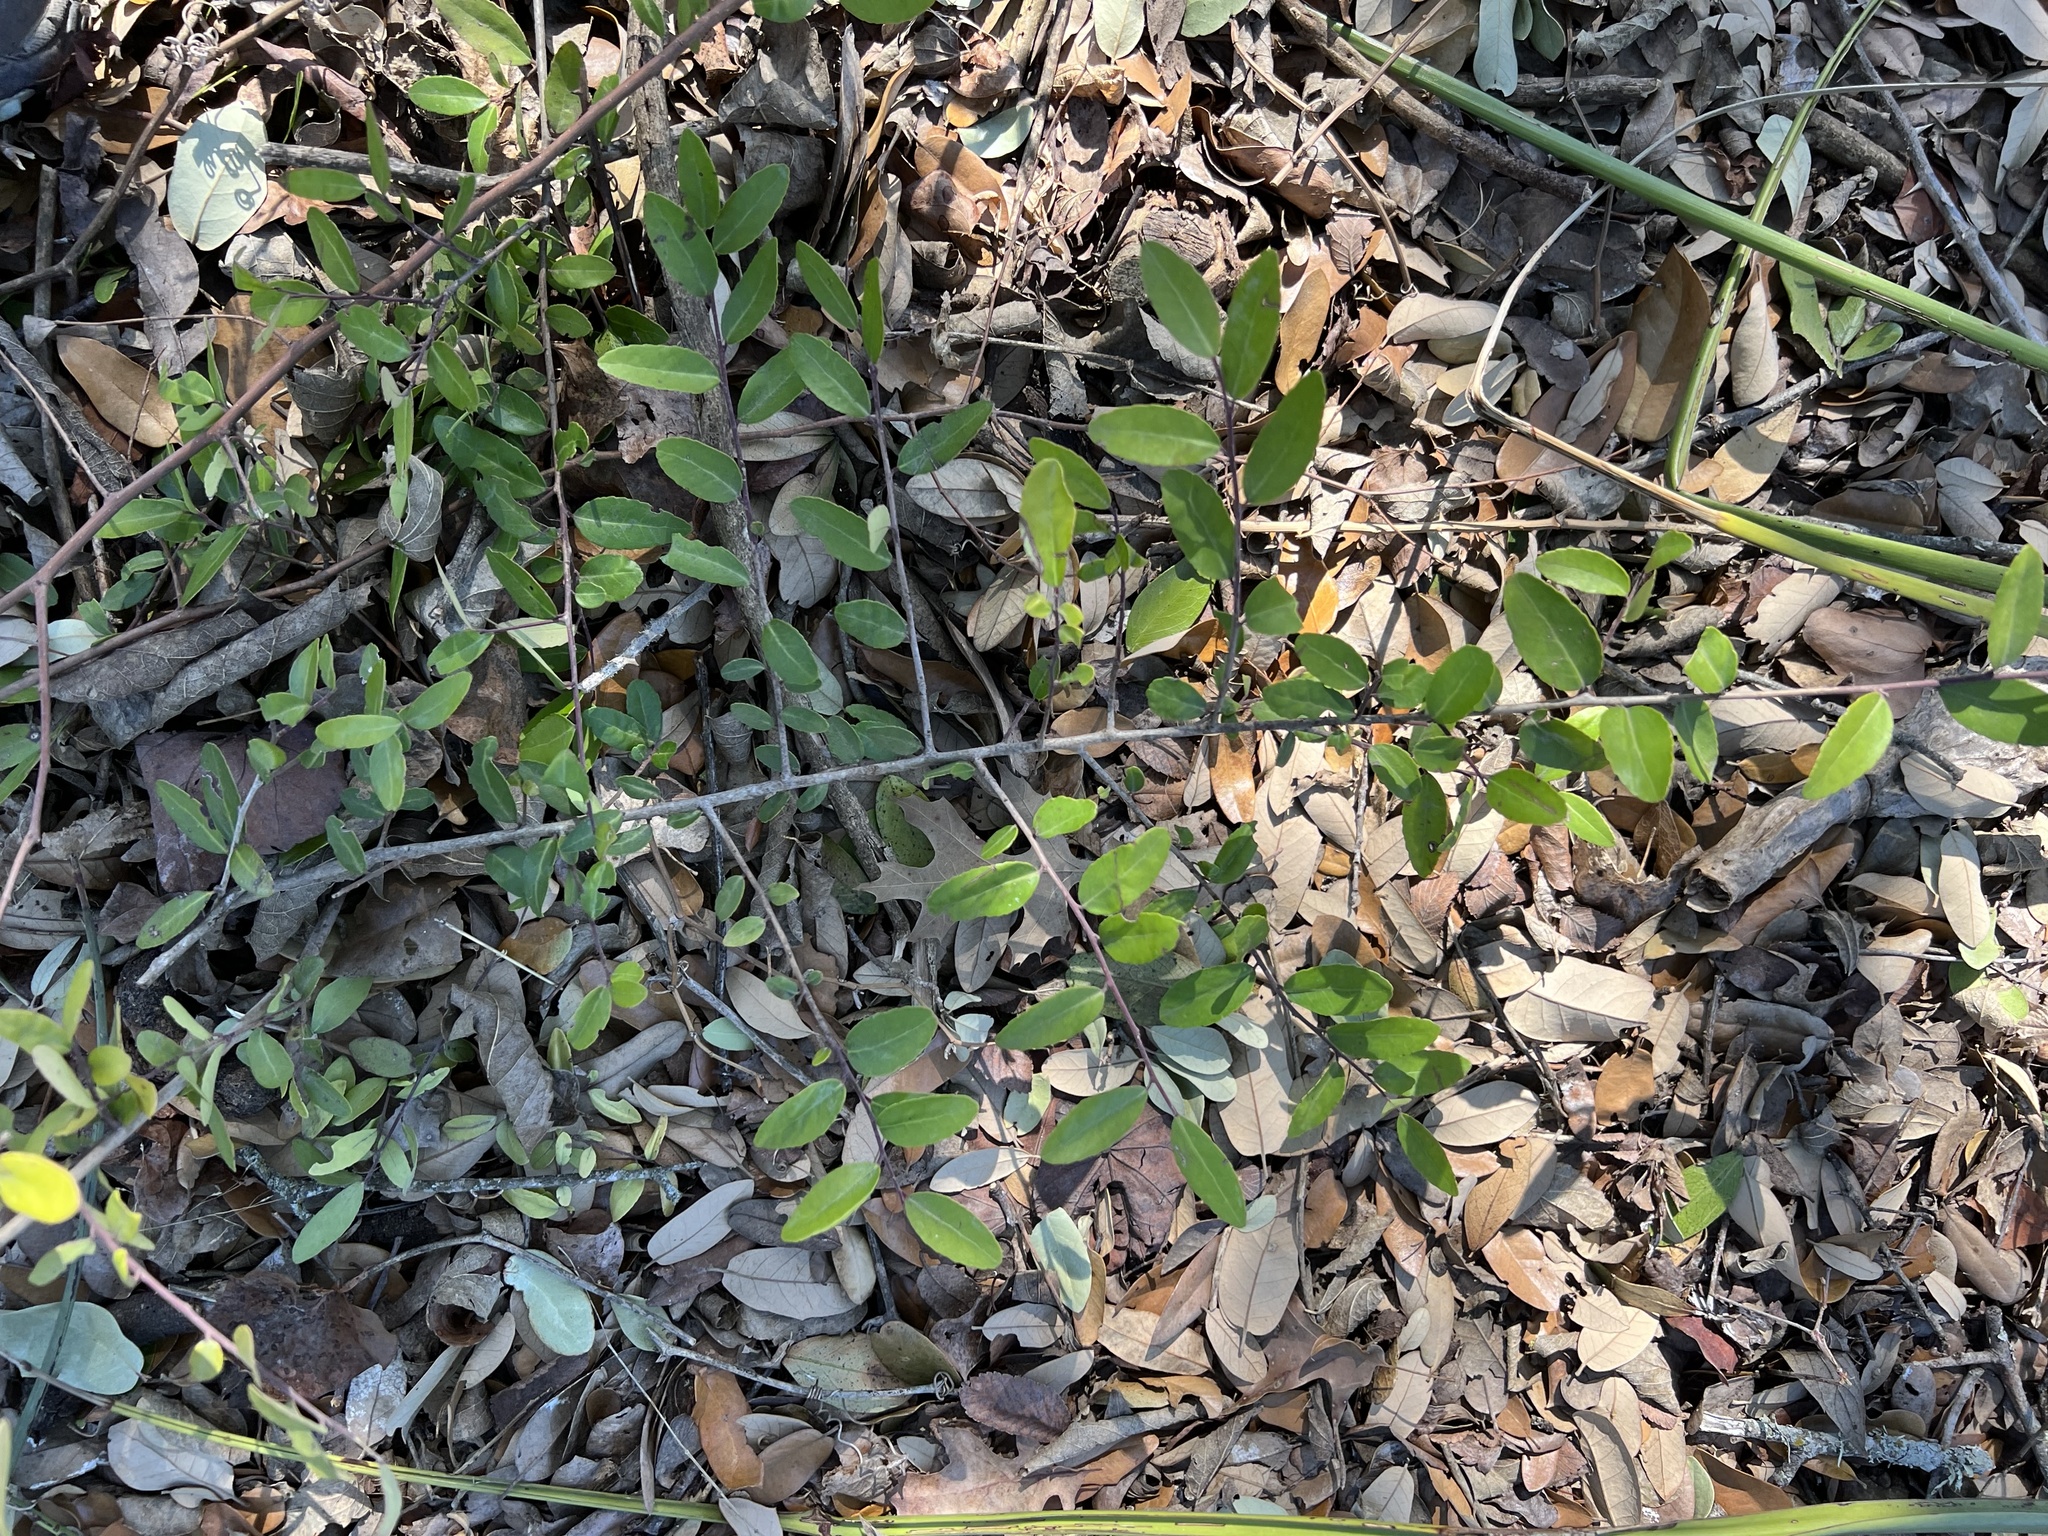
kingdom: Plantae
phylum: Tracheophyta
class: Magnoliopsida
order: Aquifoliales
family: Aquifoliaceae
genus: Ilex
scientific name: Ilex vomitoria
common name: Yaupon holly
